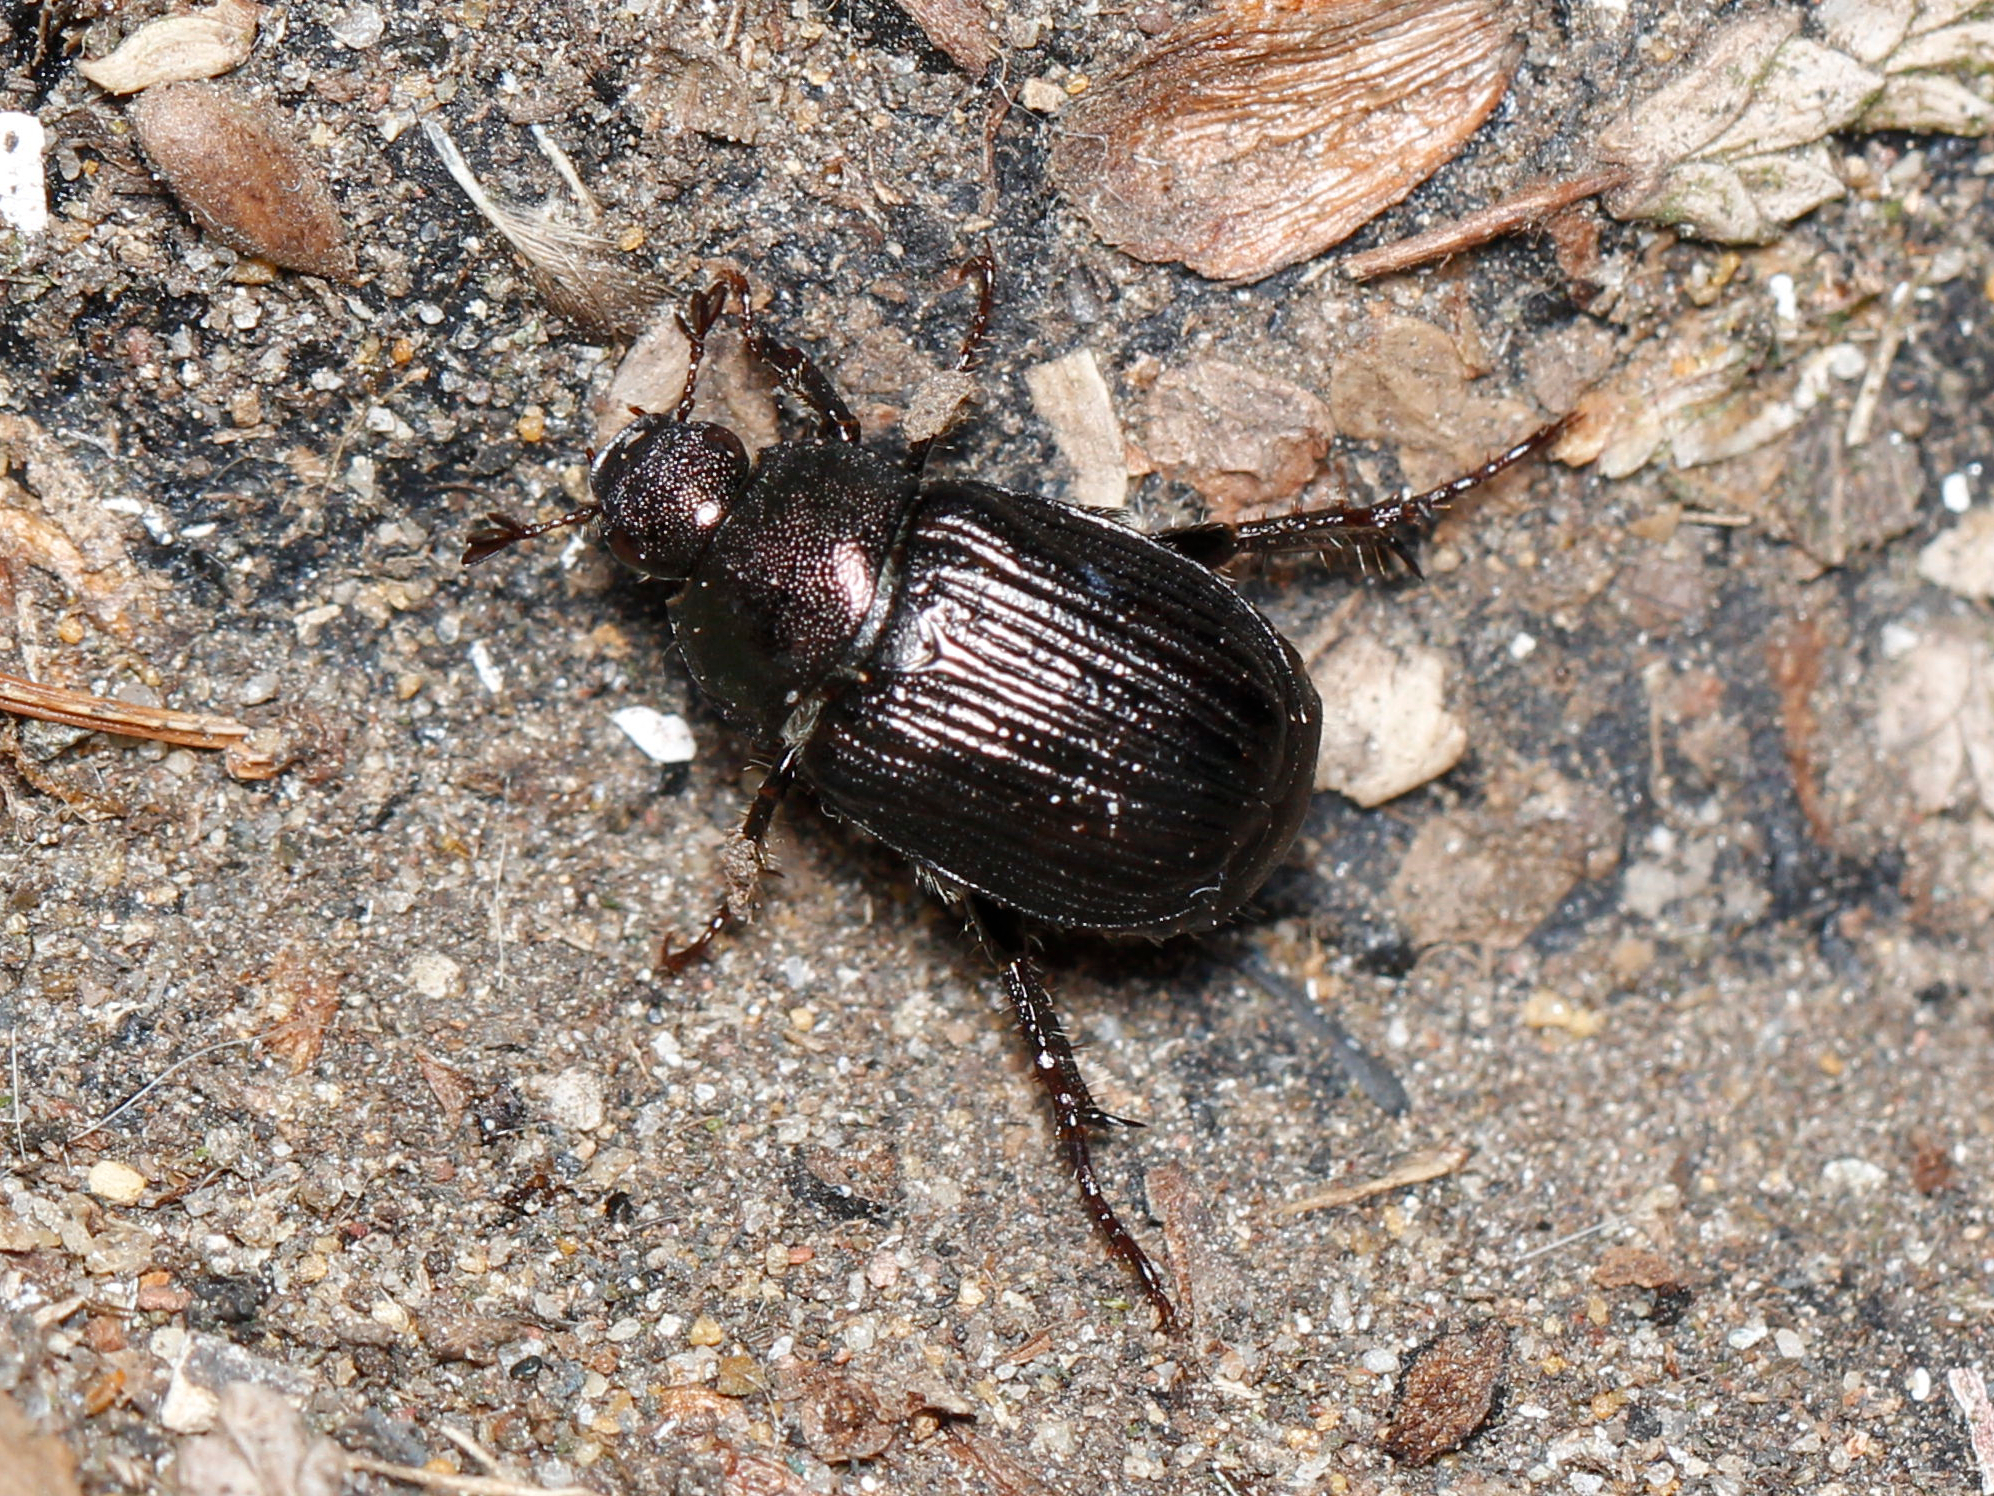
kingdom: Animalia
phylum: Arthropoda
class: Insecta
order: Coleoptera
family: Scarabaeidae
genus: Exomala
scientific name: Exomala orientalis
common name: Oriental beetle
